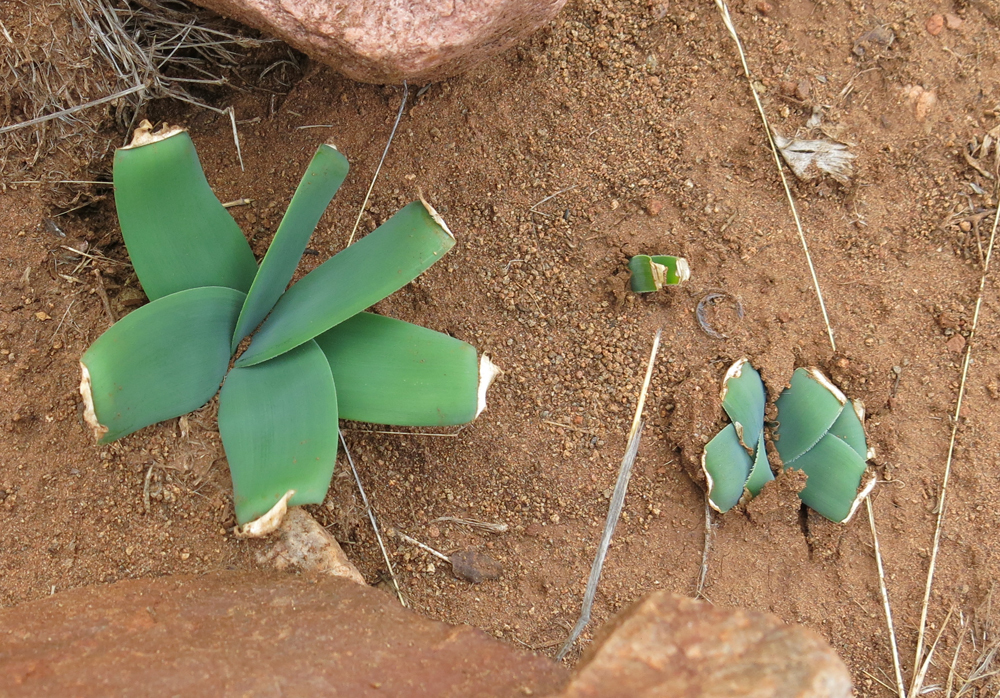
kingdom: Plantae
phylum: Tracheophyta
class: Liliopsida
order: Asparagales
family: Amaryllidaceae
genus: Ammocharis
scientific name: Ammocharis coranica
